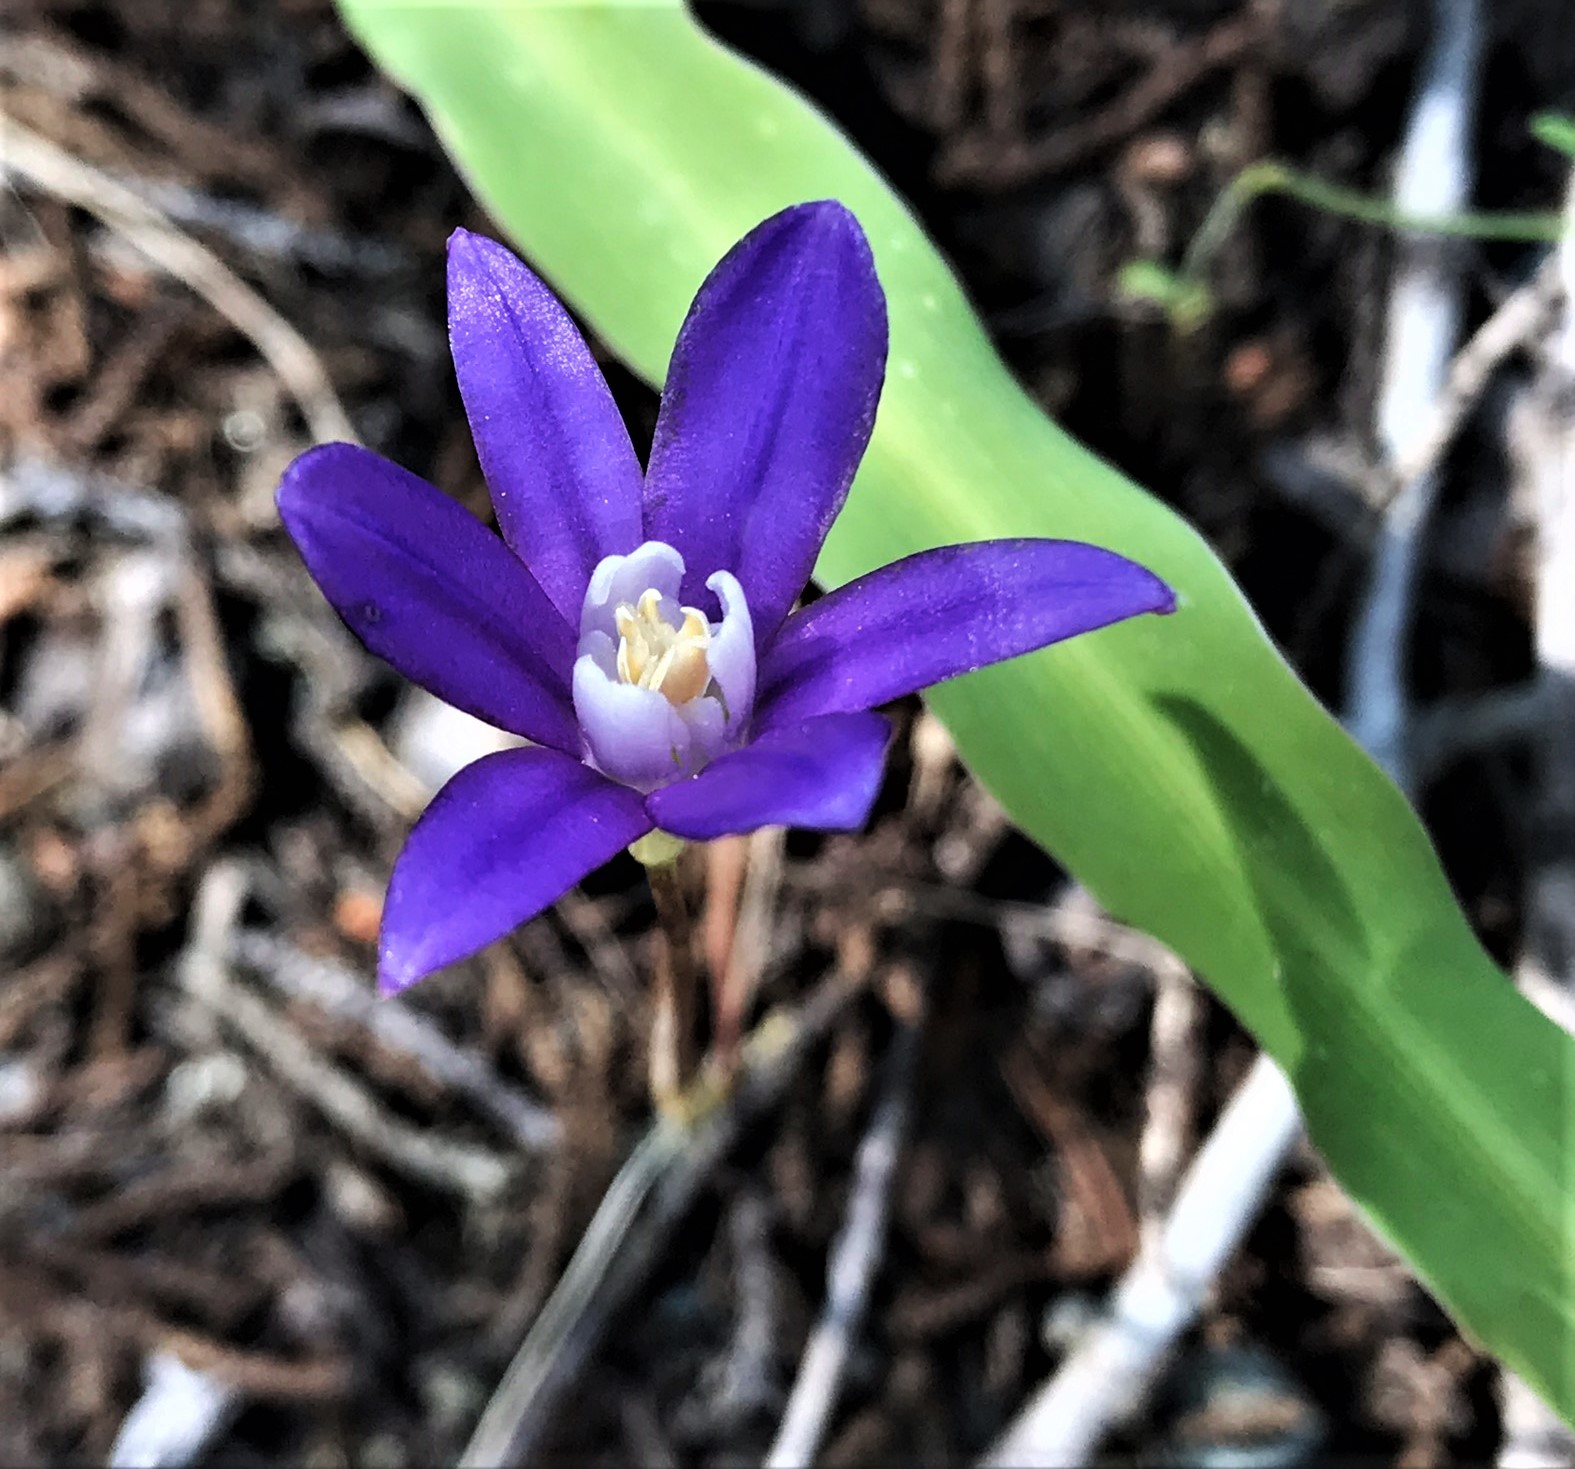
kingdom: Plantae
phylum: Tracheophyta
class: Liliopsida
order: Asparagales
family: Asparagaceae
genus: Brodiaea
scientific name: Brodiaea stellaris
